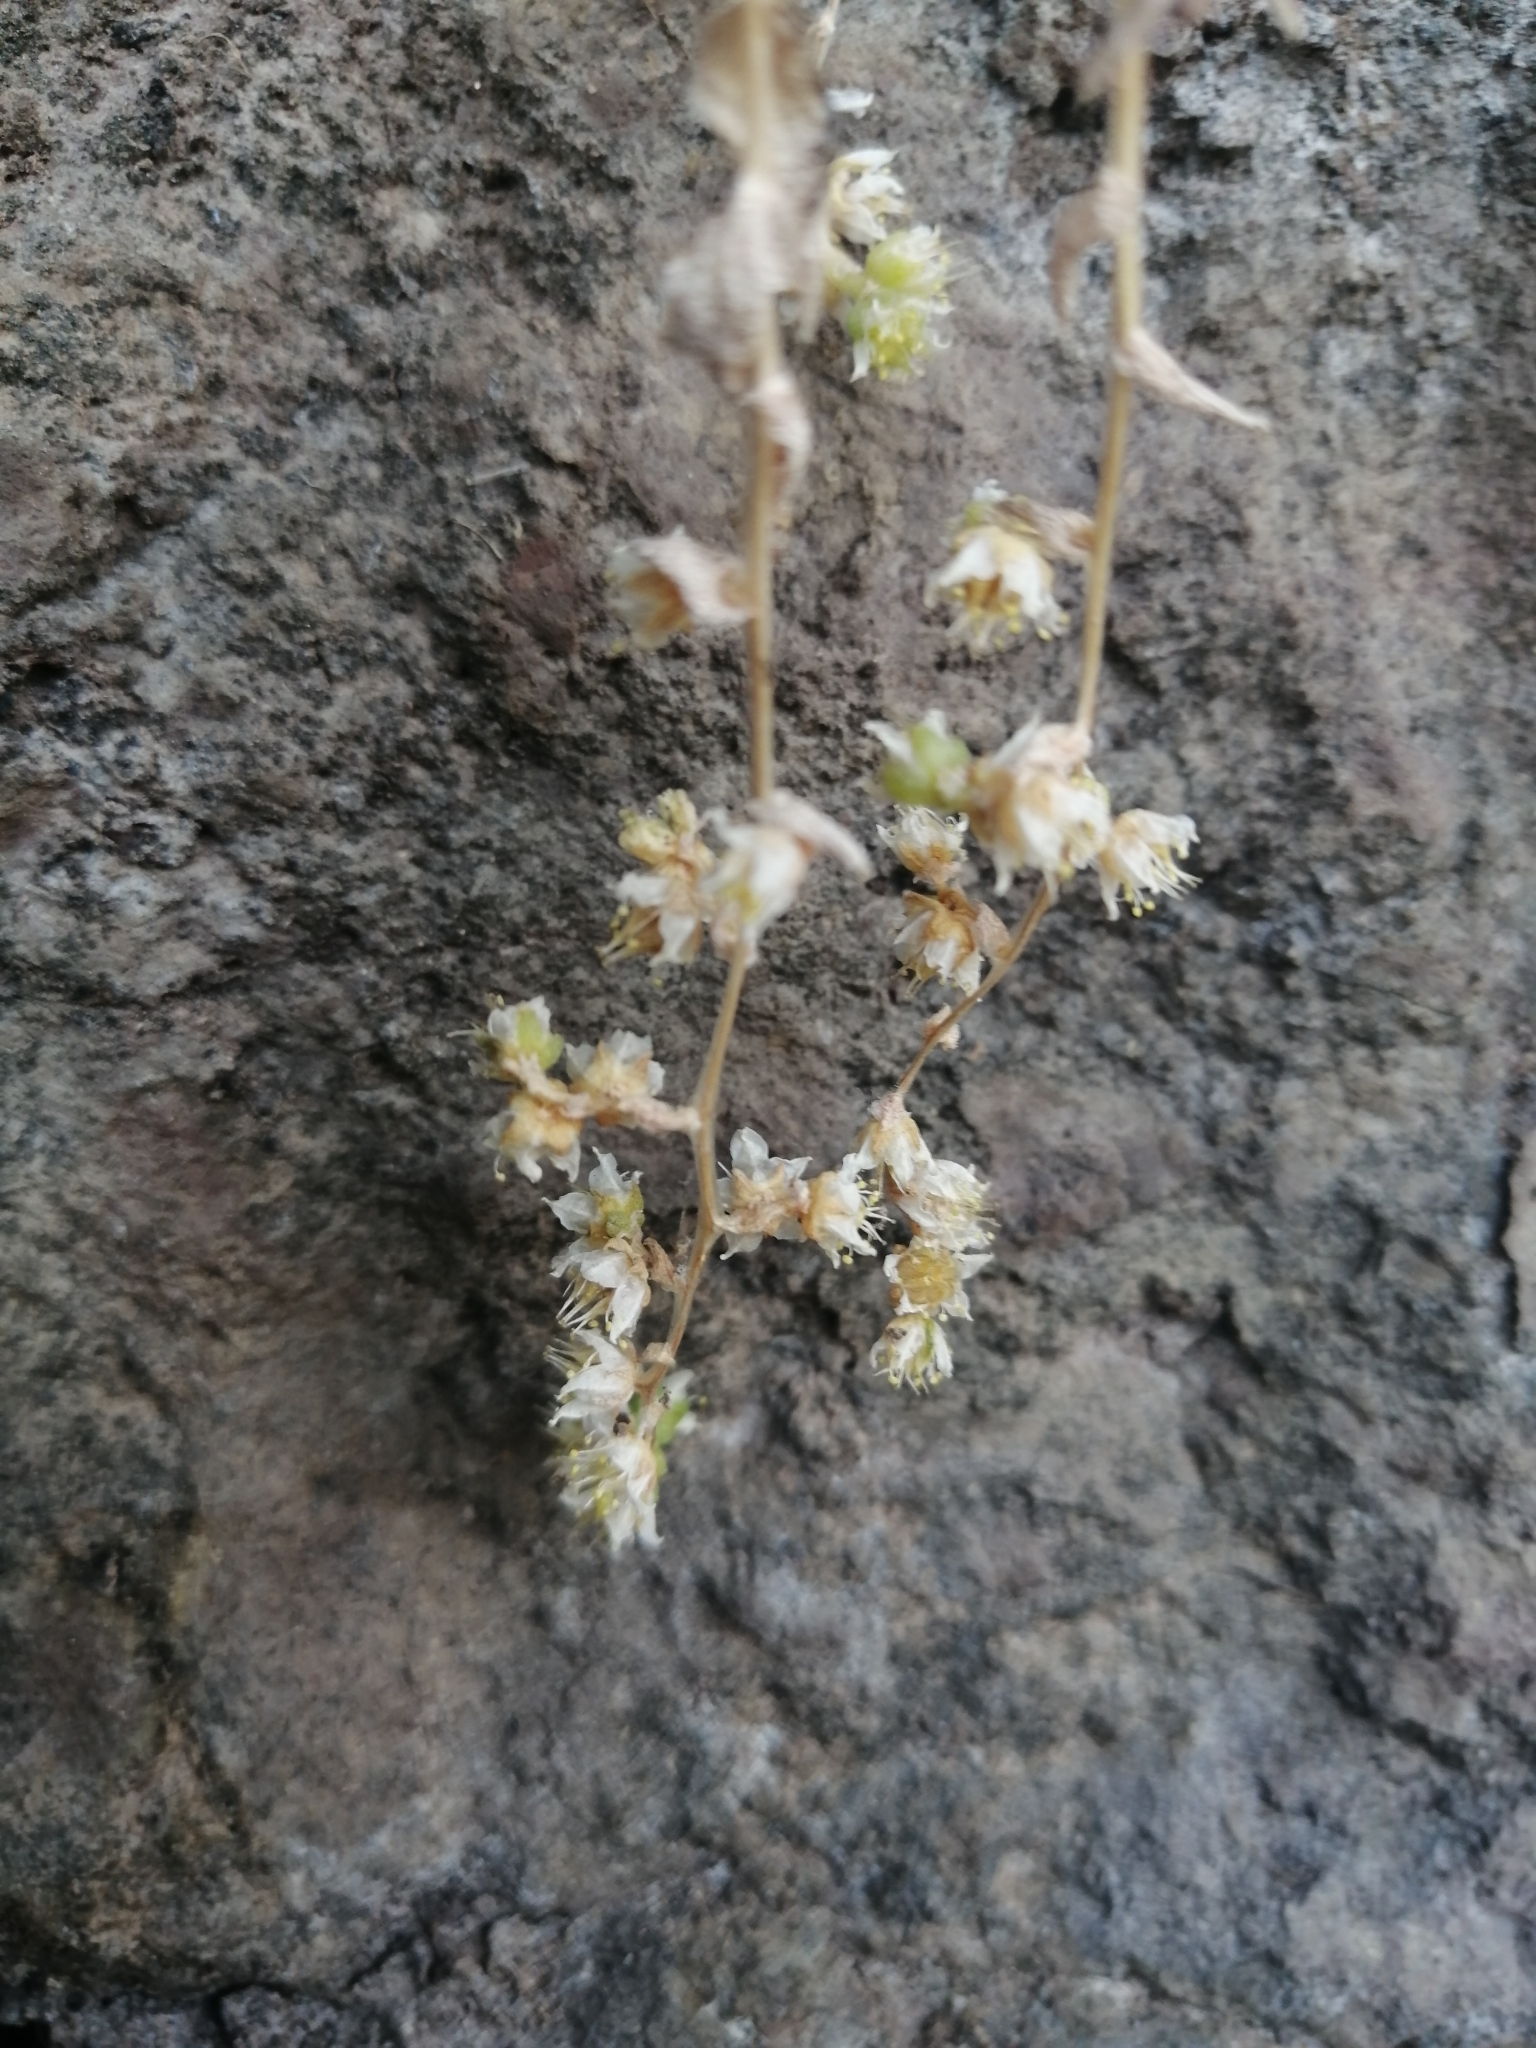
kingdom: Plantae
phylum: Tracheophyta
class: Magnoliopsida
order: Saxifragales
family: Crassulaceae
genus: Sedum
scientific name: Sedum ebracteatum
